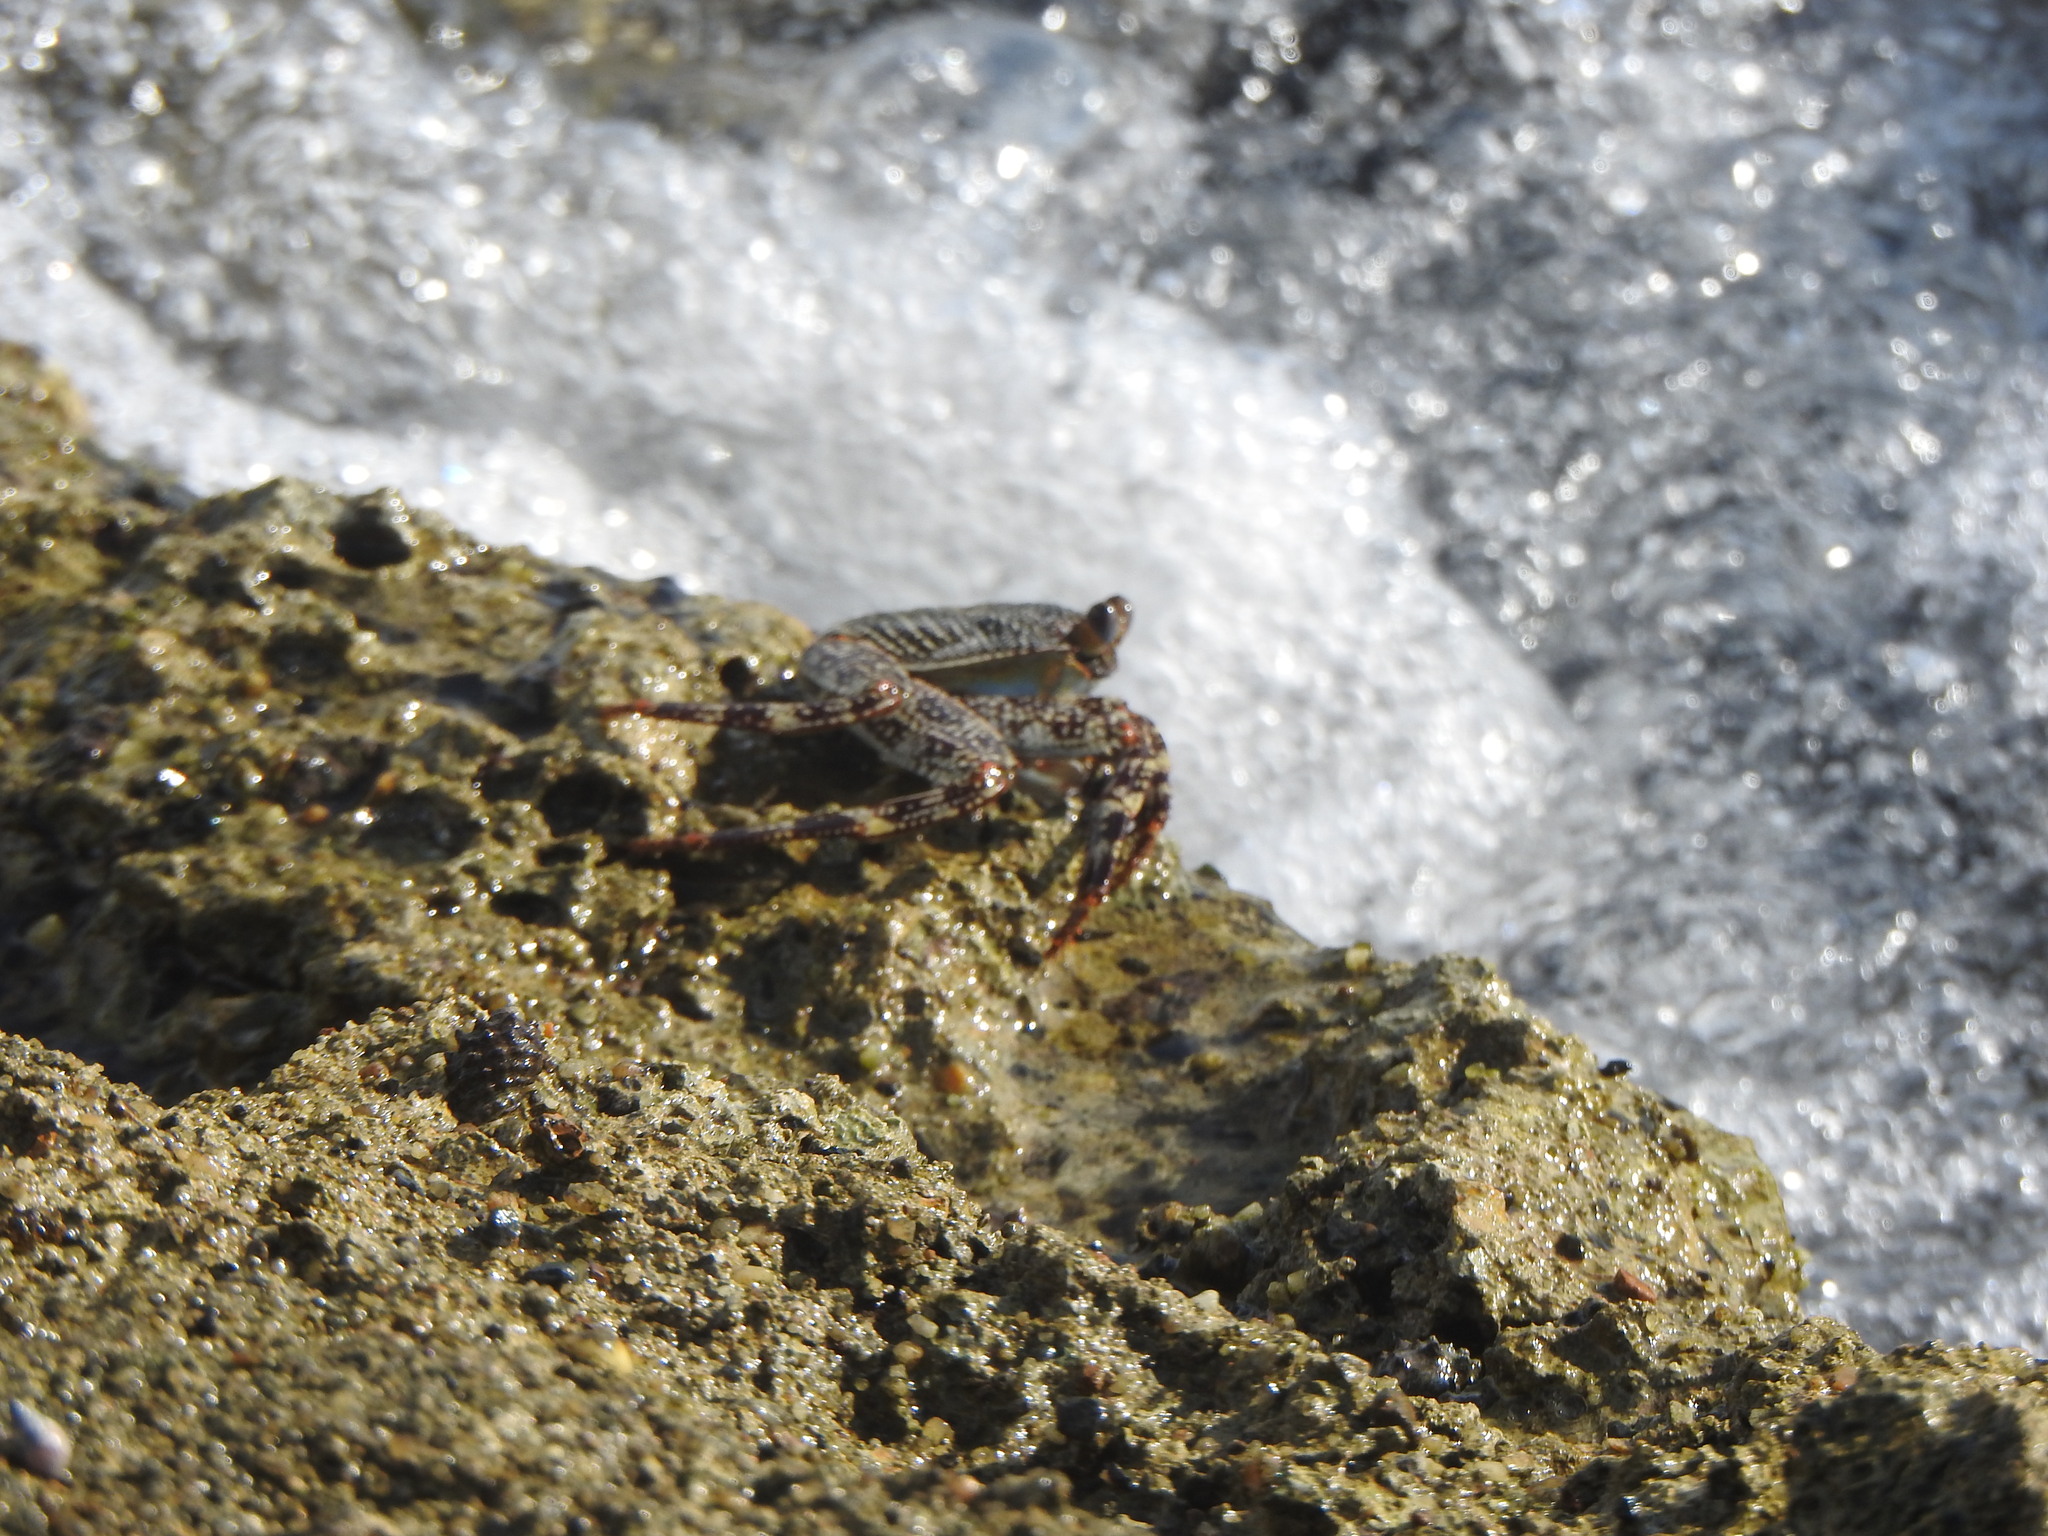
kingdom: Animalia
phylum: Arthropoda
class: Malacostraca
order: Decapoda
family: Grapsidae
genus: Grapsus
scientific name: Grapsus grapsus
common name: Sally lightfoot
